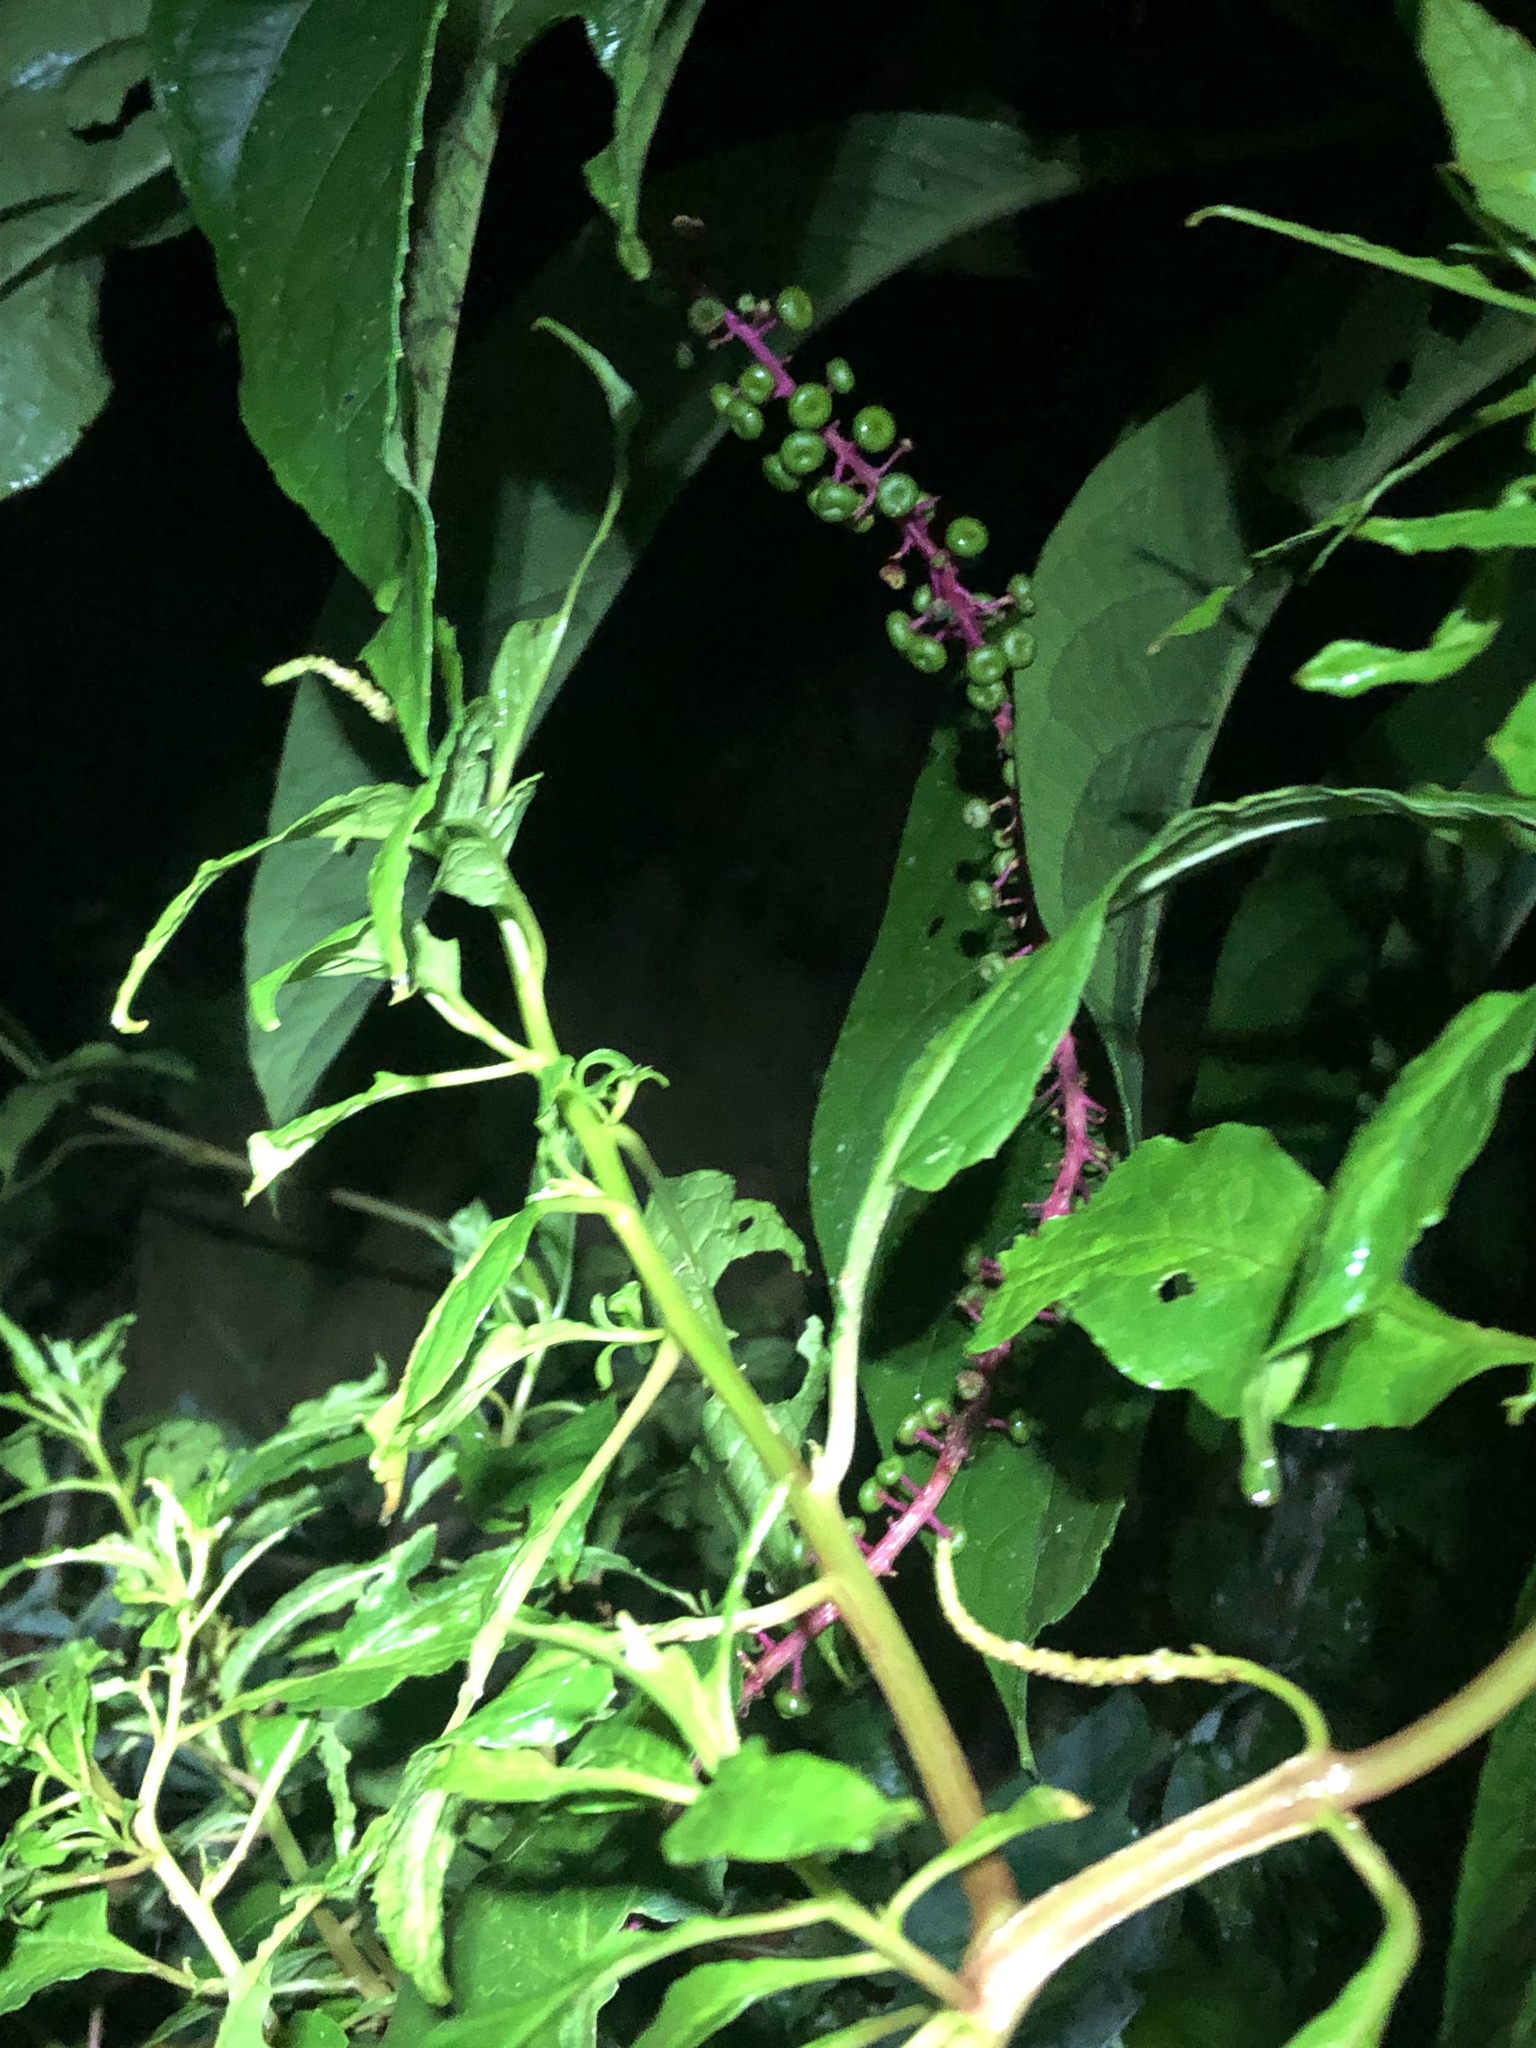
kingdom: Plantae
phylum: Tracheophyta
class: Magnoliopsida
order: Caryophyllales
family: Phytolaccaceae
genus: Phytolacca
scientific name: Phytolacca rivinoides
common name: Venezuelan pokeweed
